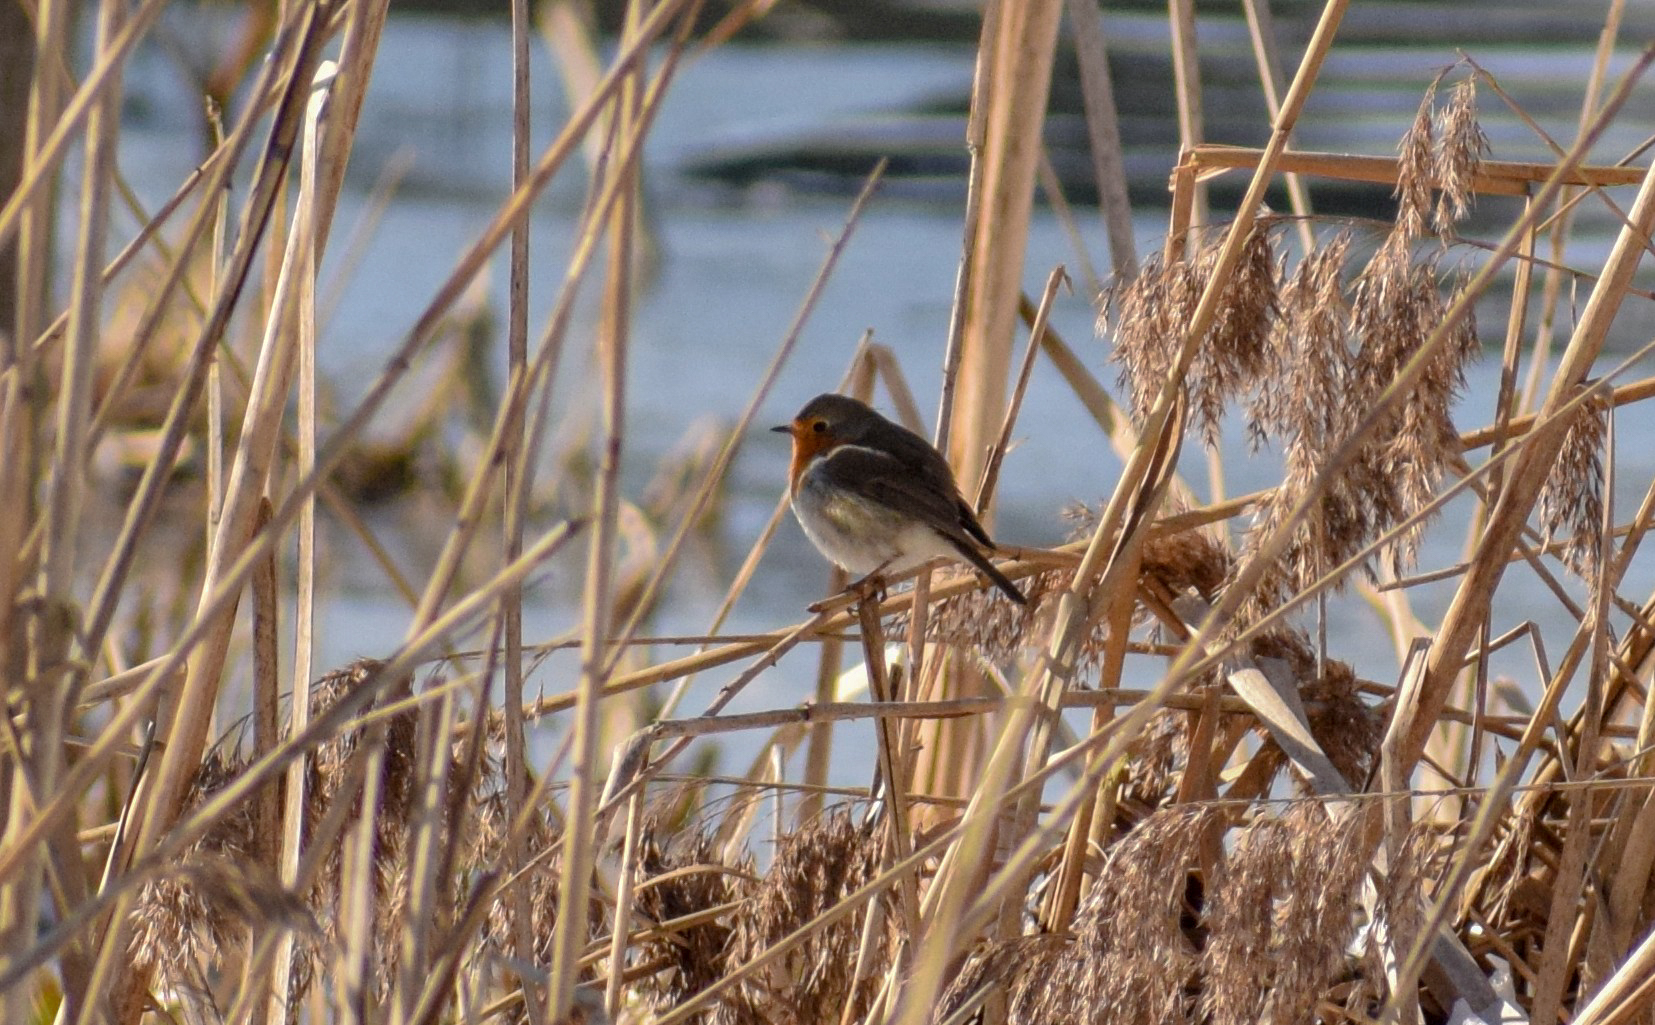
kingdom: Animalia
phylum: Chordata
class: Aves
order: Passeriformes
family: Muscicapidae
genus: Erithacus
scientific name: Erithacus rubecula
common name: European robin
